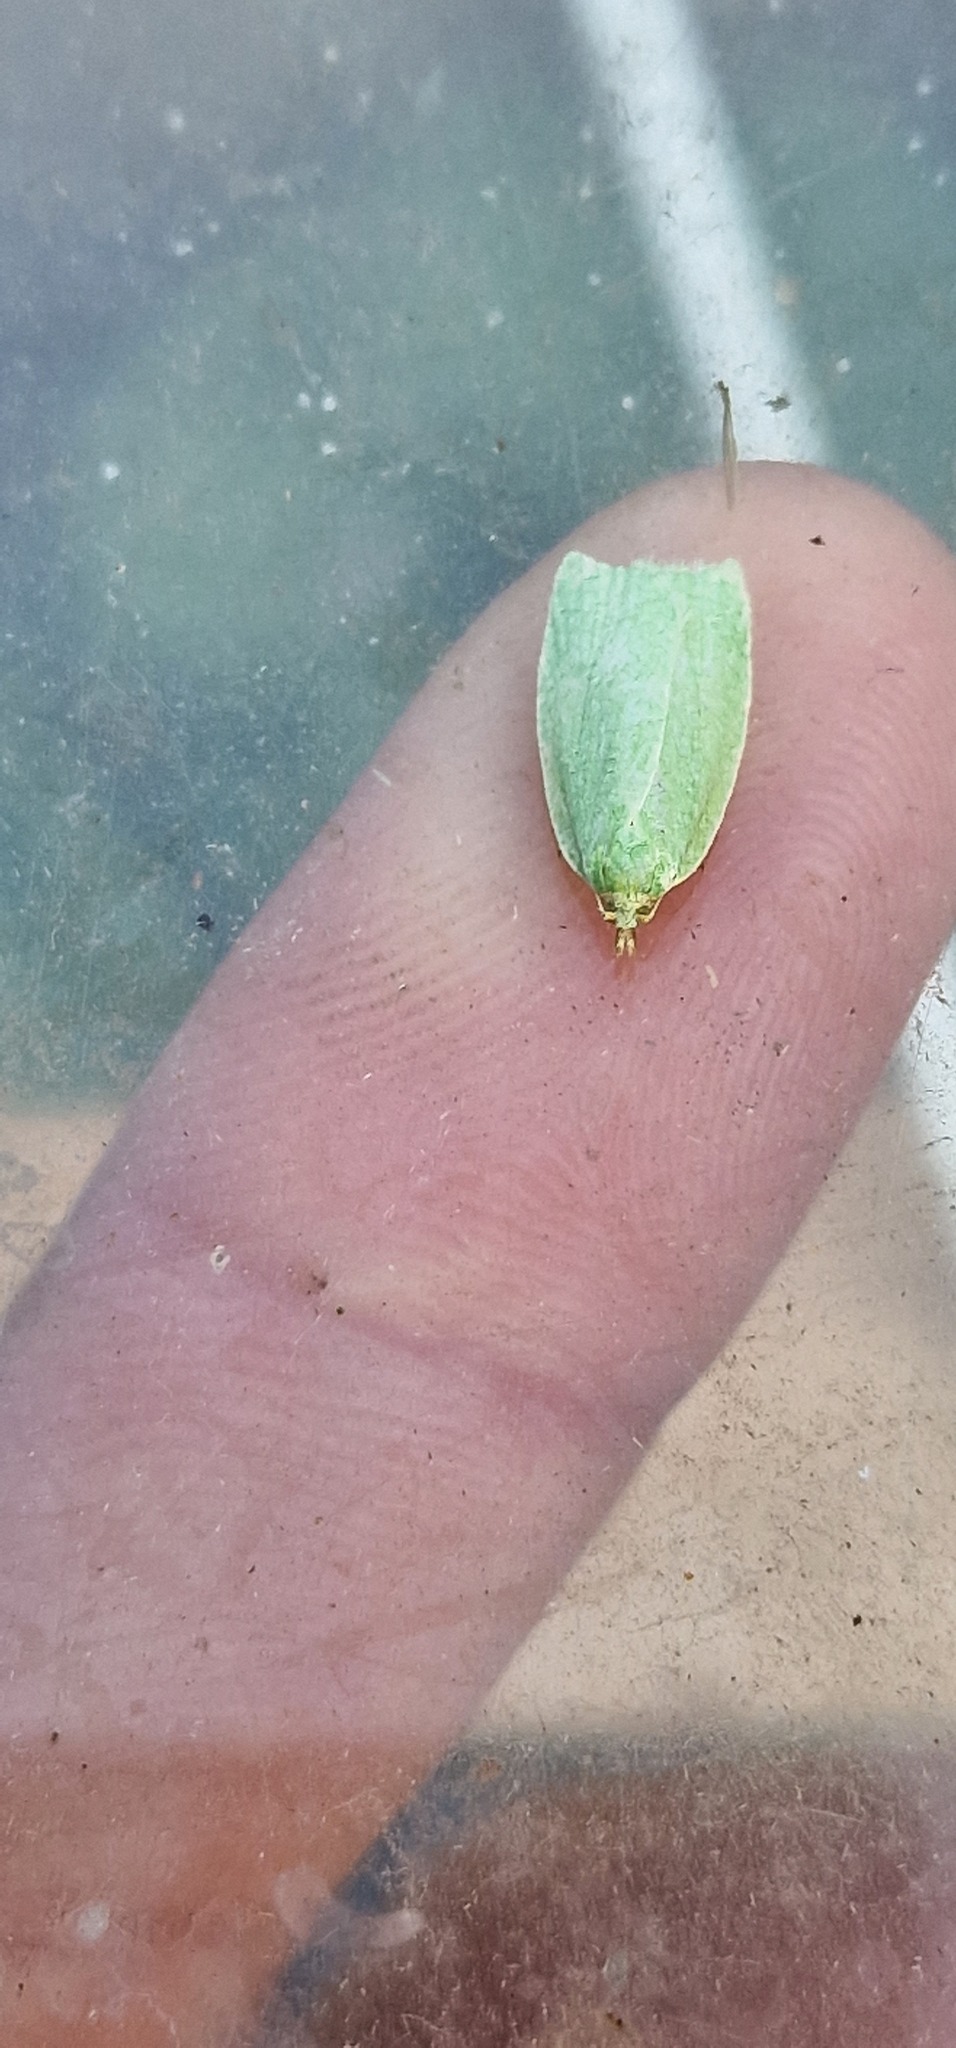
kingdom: Animalia
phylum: Arthropoda
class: Insecta
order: Lepidoptera
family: Tortricidae
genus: Tortrix
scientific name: Tortrix viridana
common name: Green oak tortrix
